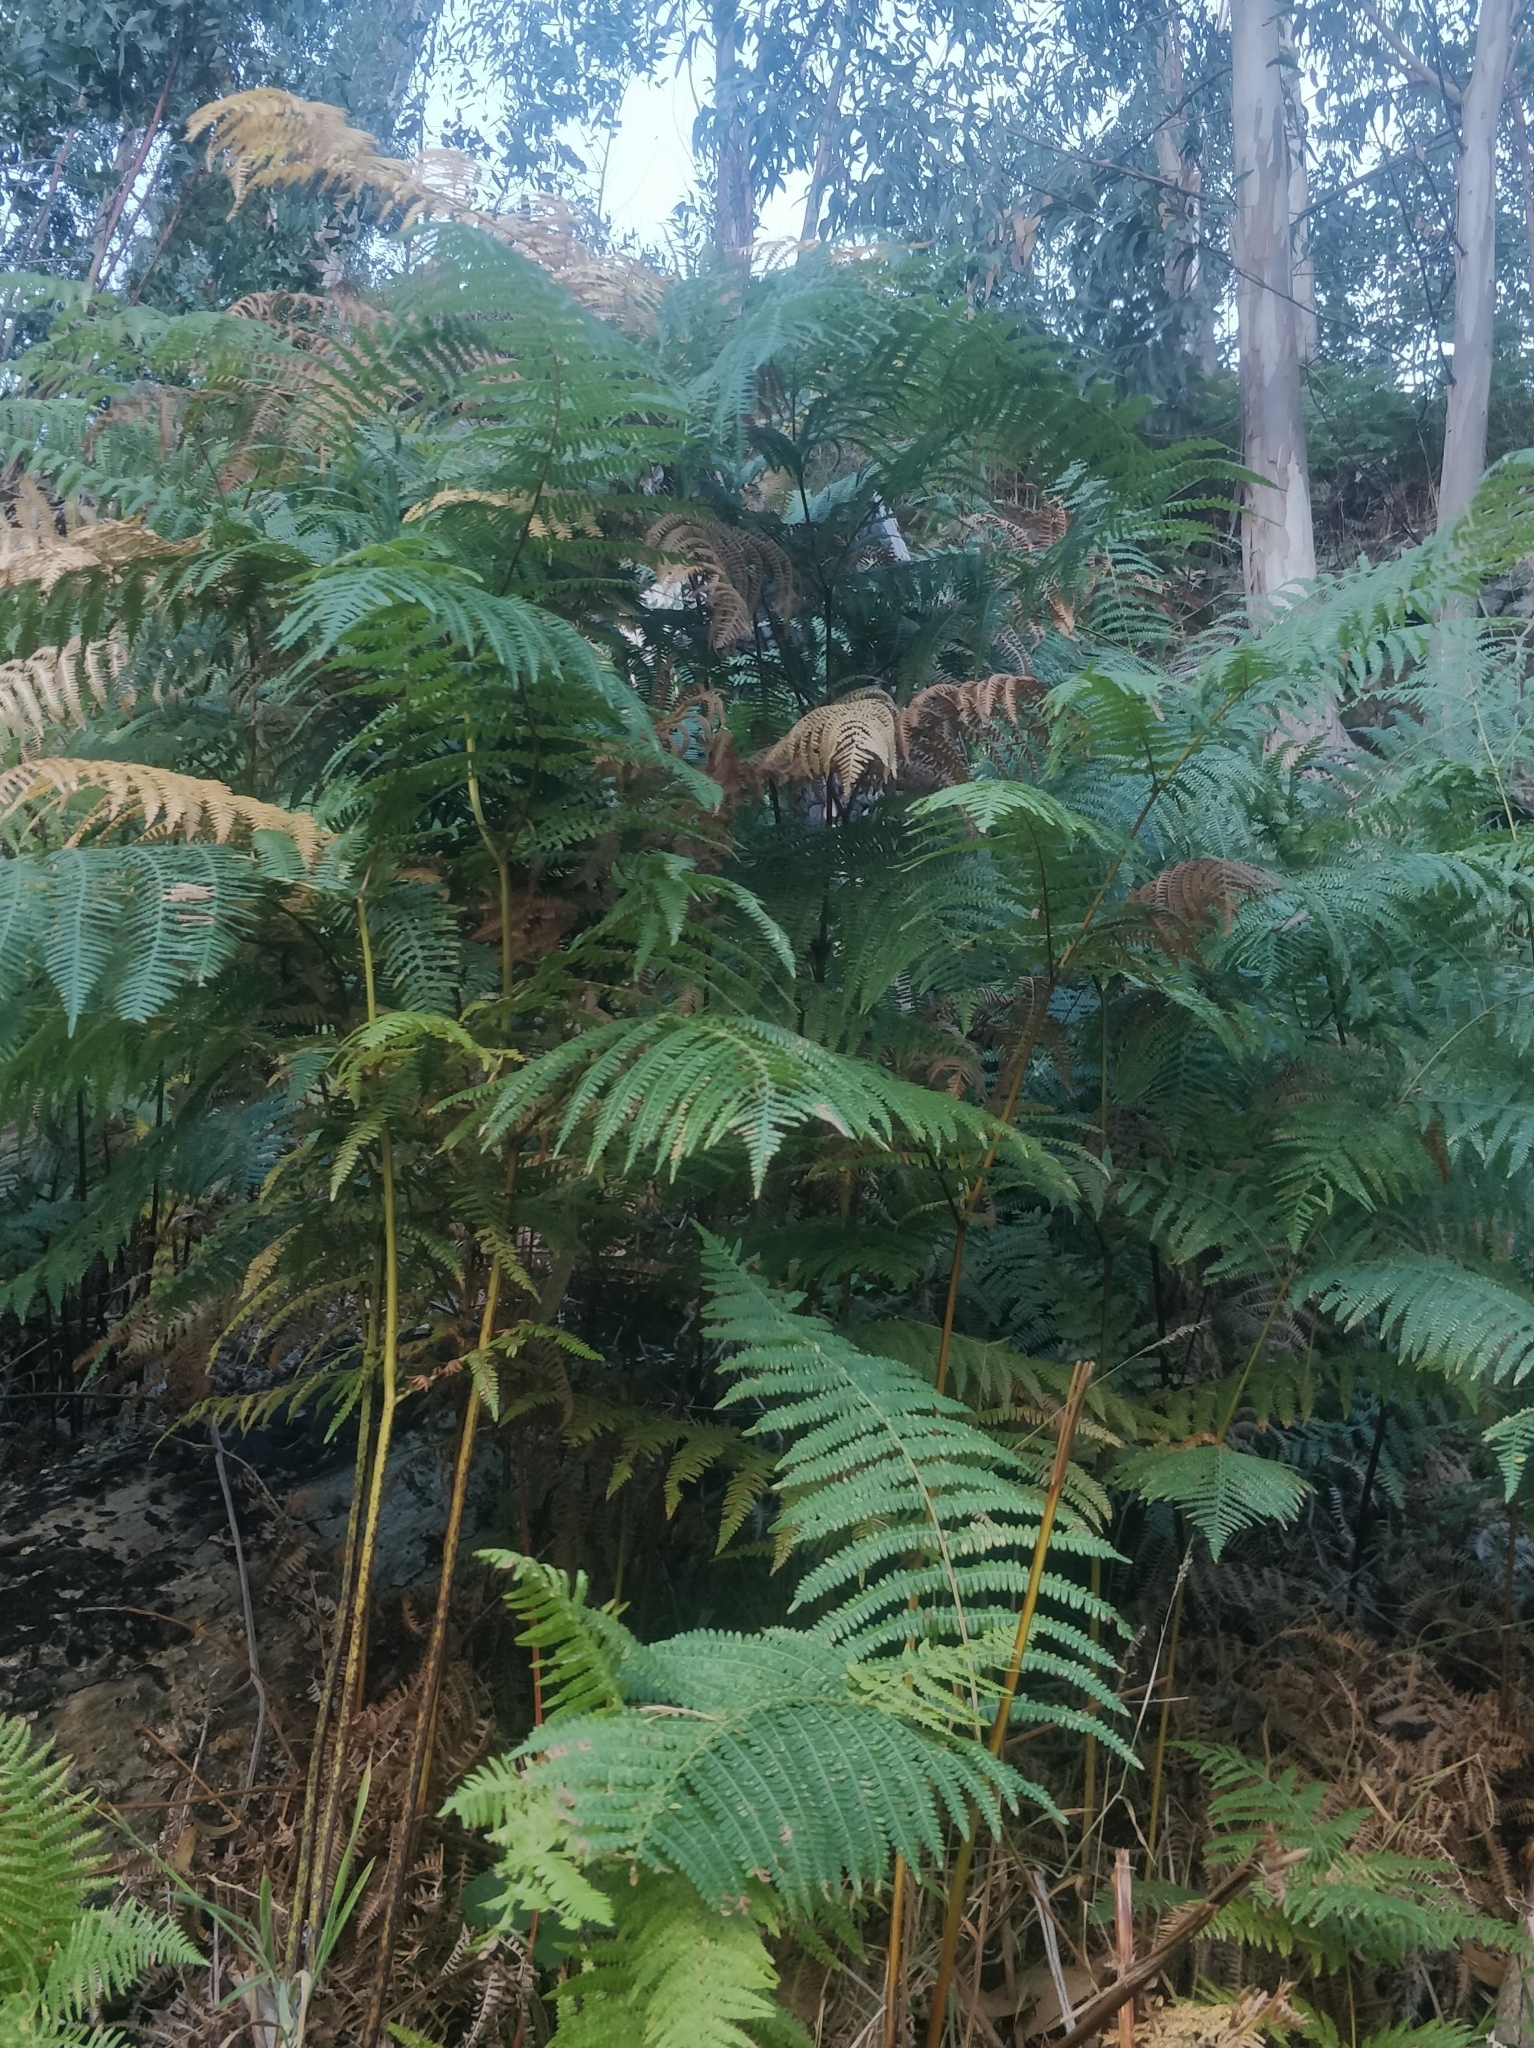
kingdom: Plantae
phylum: Tracheophyta
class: Polypodiopsida
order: Polypodiales
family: Dennstaedtiaceae
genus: Pteridium
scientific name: Pteridium aquilinum
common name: Bracken
